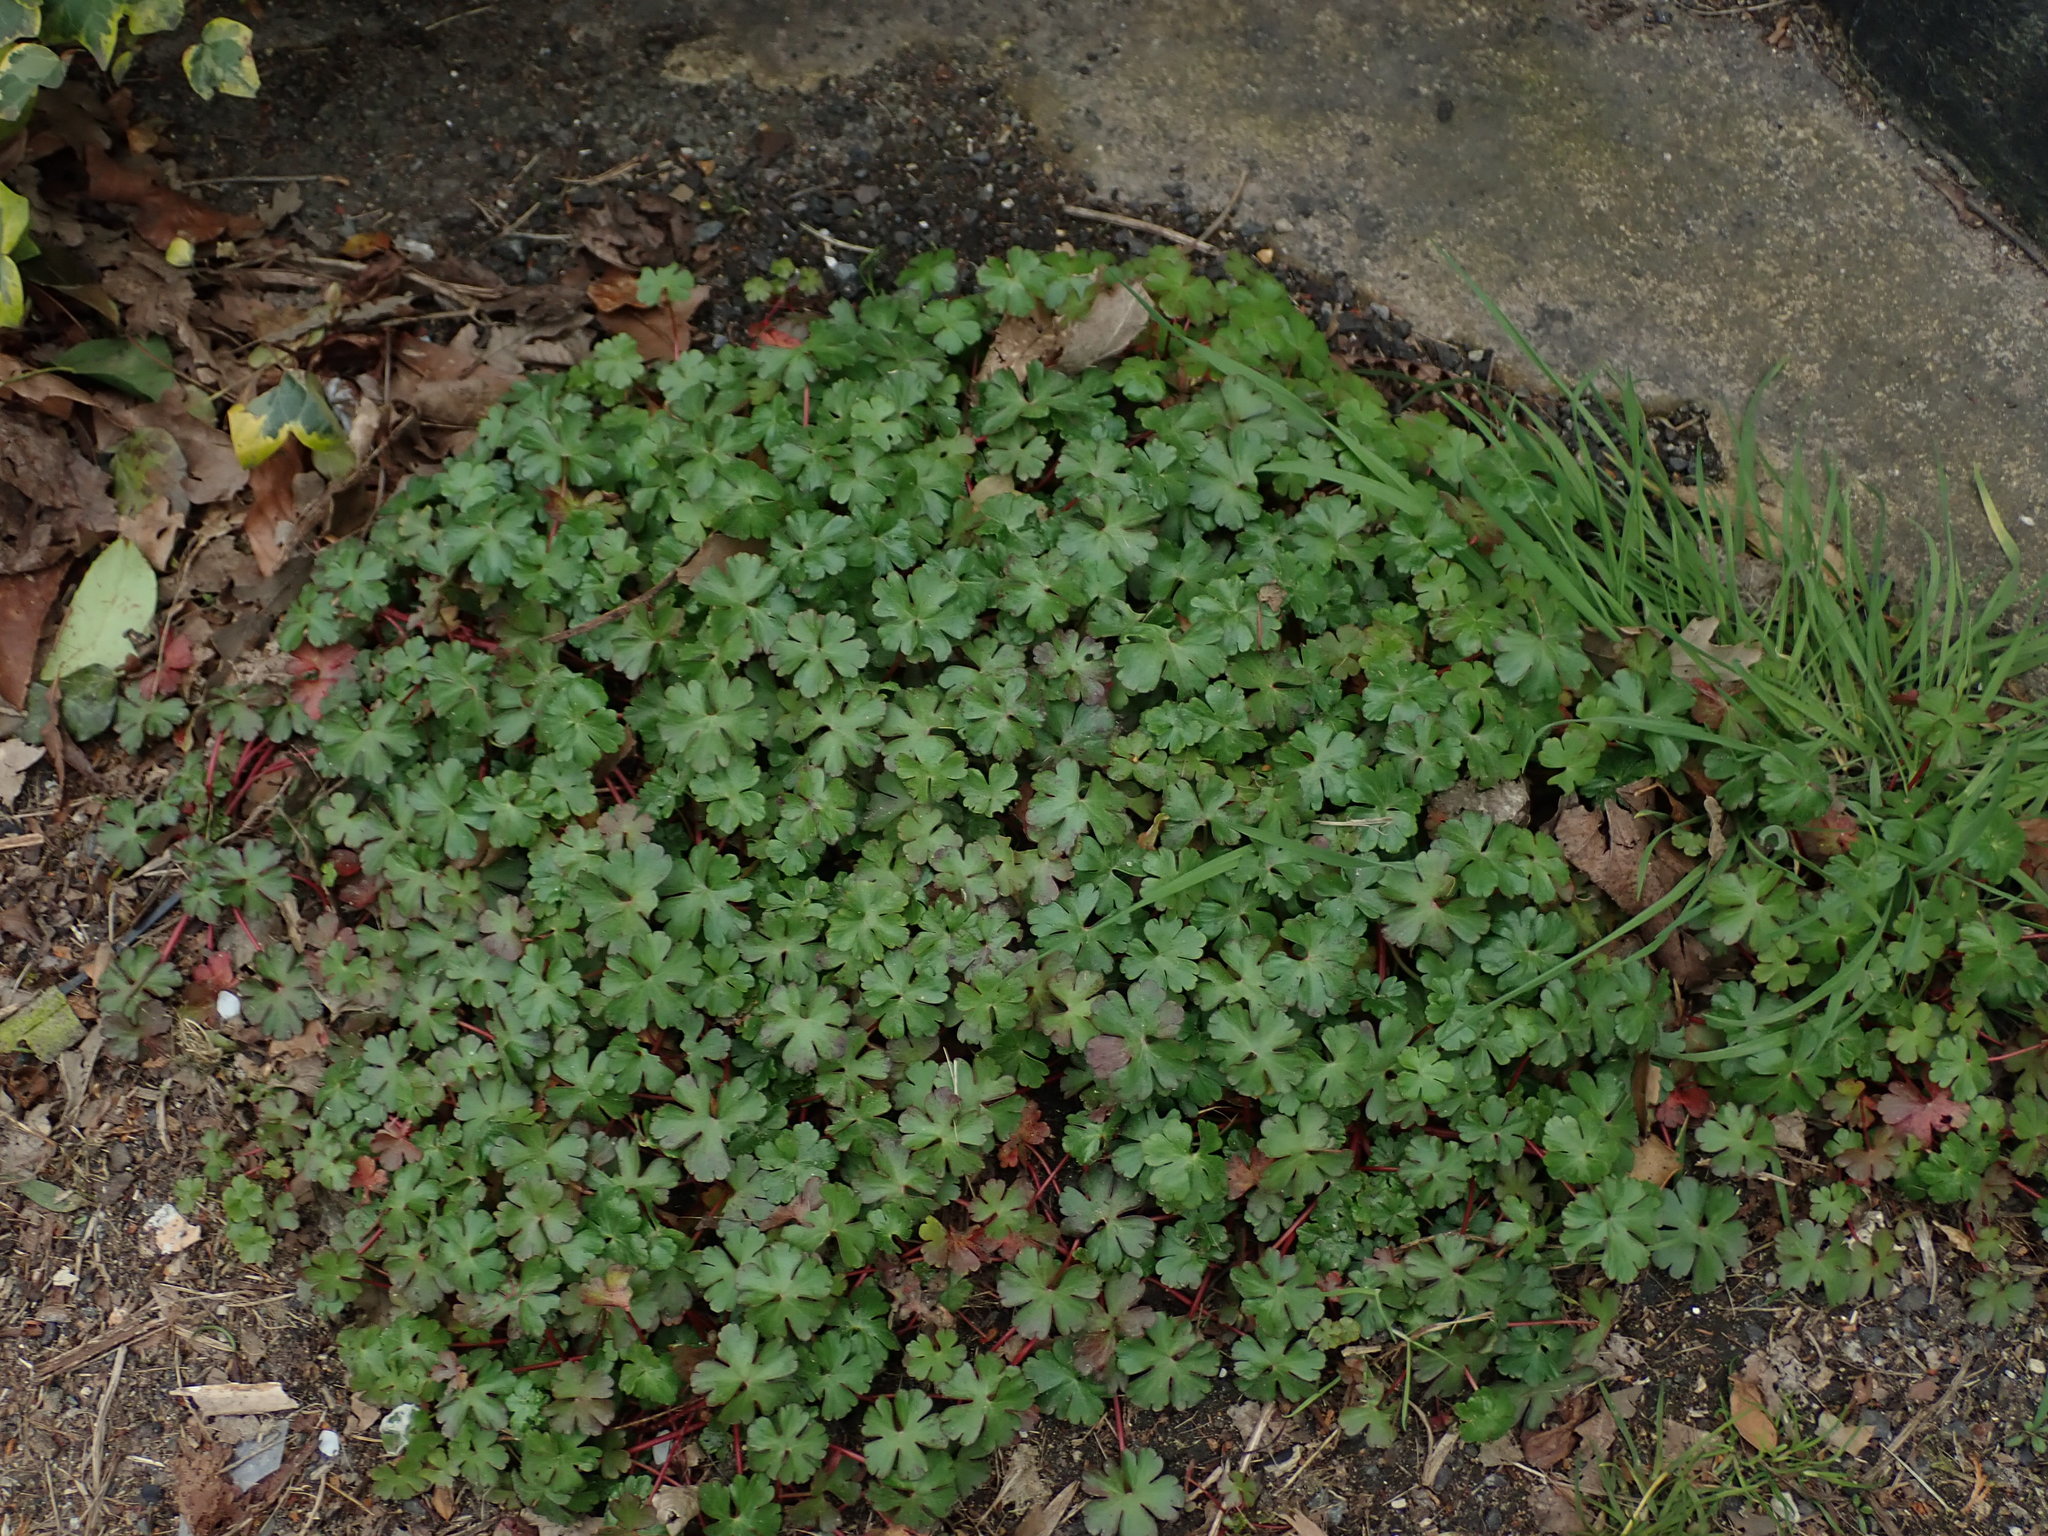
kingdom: Plantae
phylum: Tracheophyta
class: Magnoliopsida
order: Geraniales
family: Geraniaceae
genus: Geranium
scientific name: Geranium lucidum
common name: Shining crane's-bill
